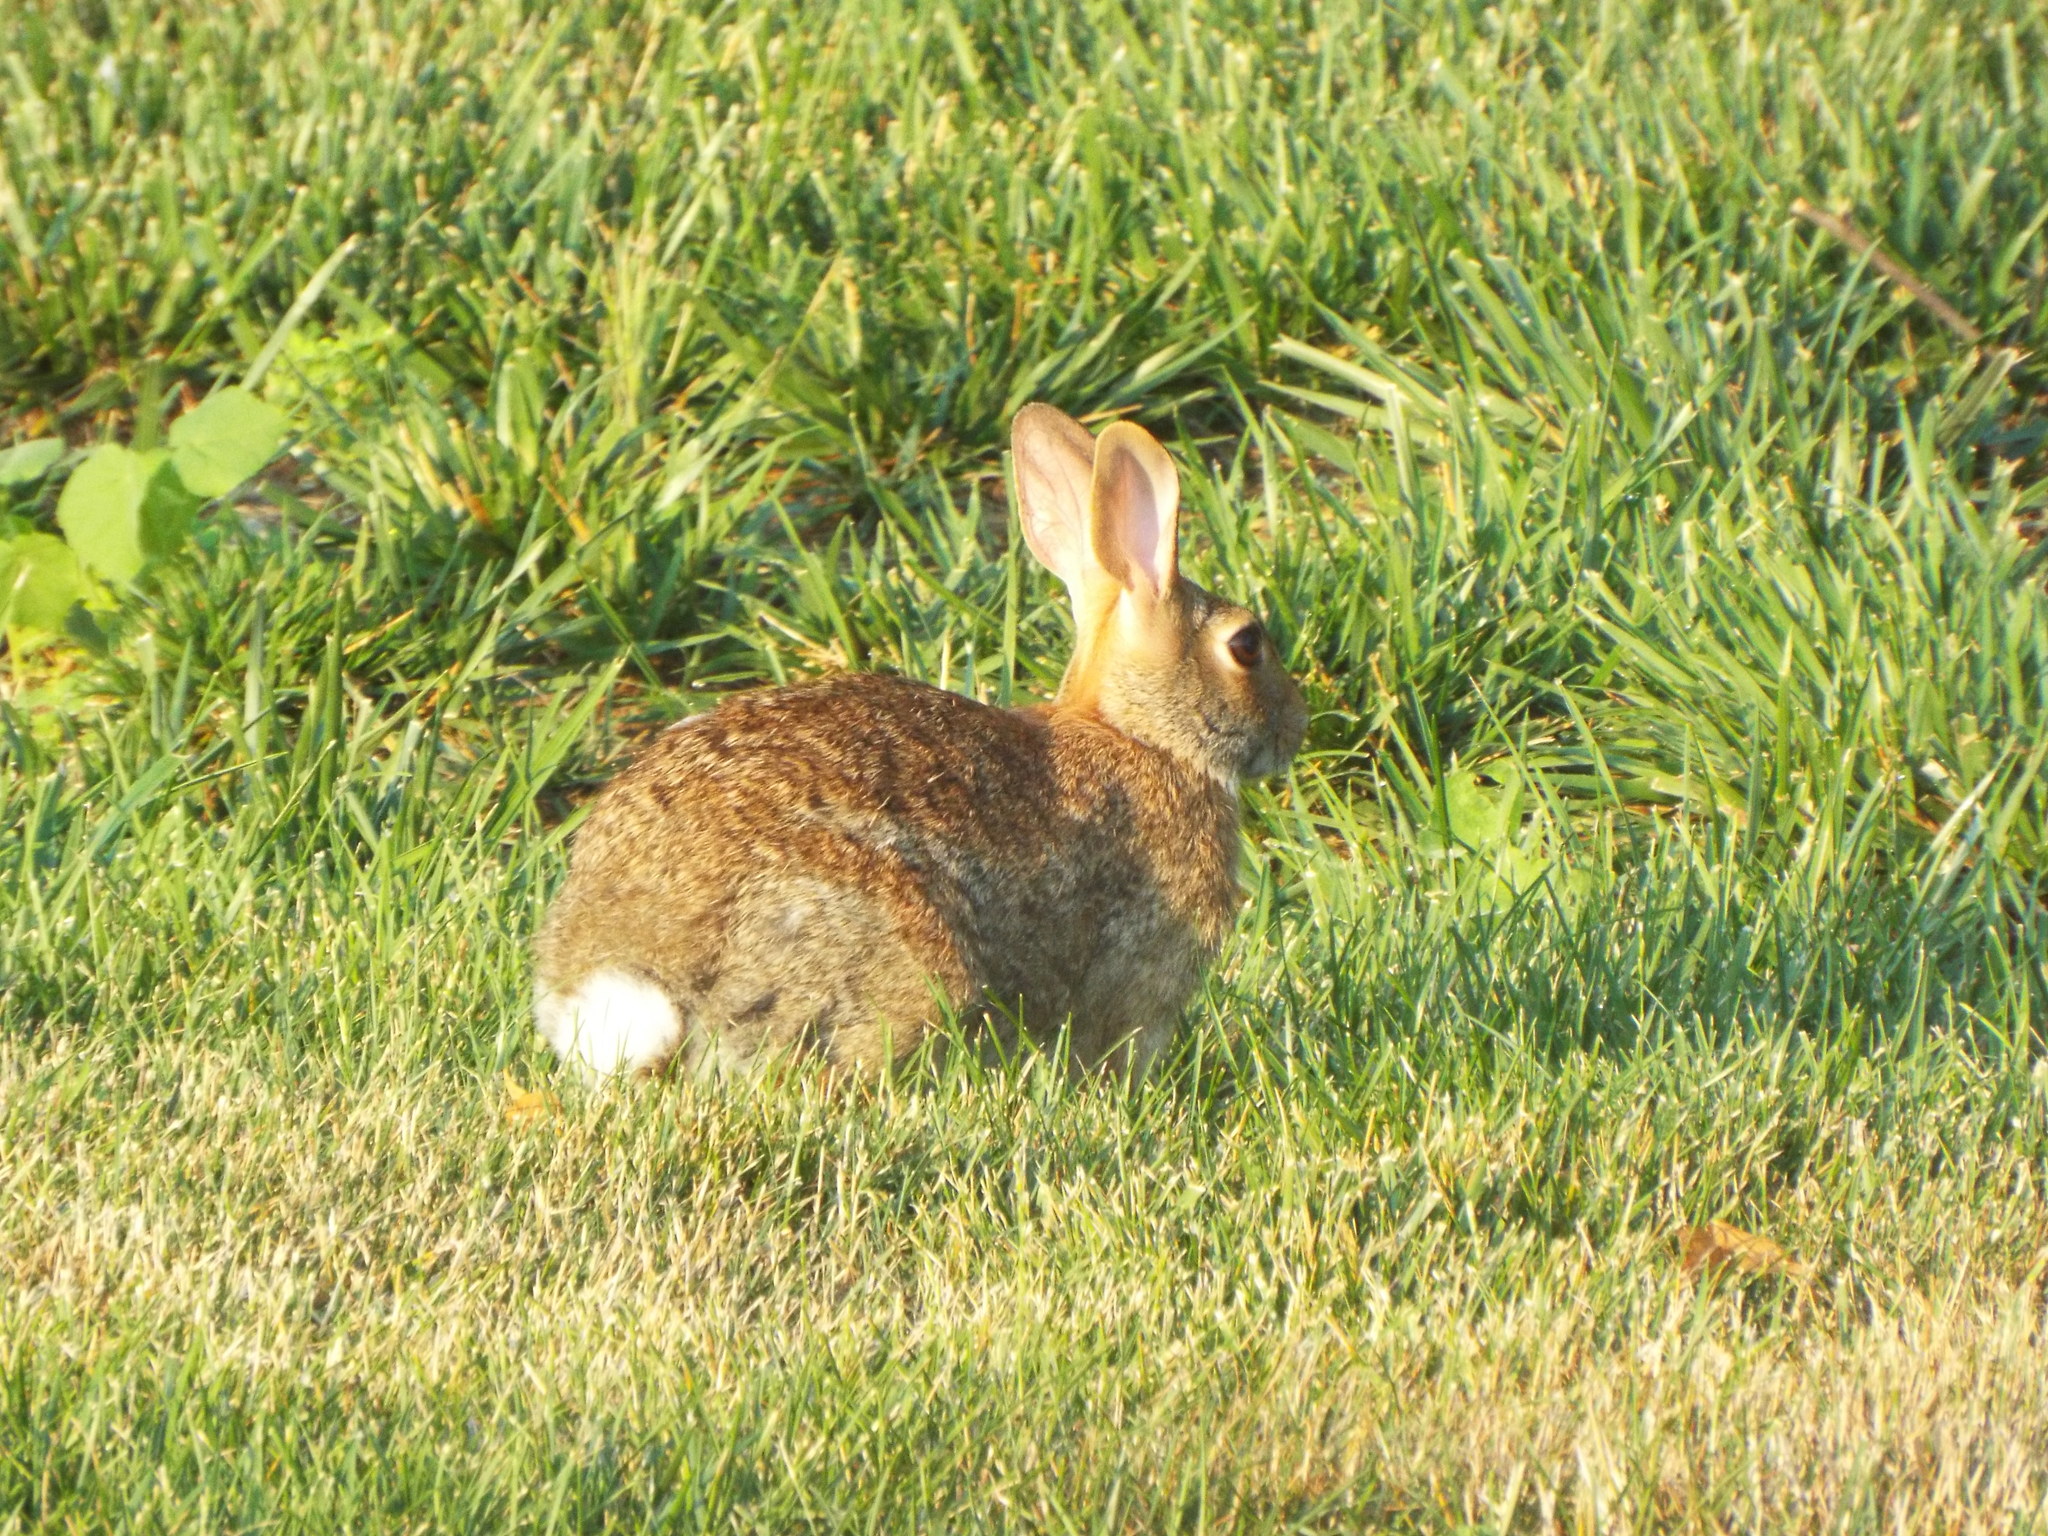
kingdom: Animalia
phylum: Chordata
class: Mammalia
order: Lagomorpha
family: Leporidae
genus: Sylvilagus
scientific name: Sylvilagus floridanus
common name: Eastern cottontail
